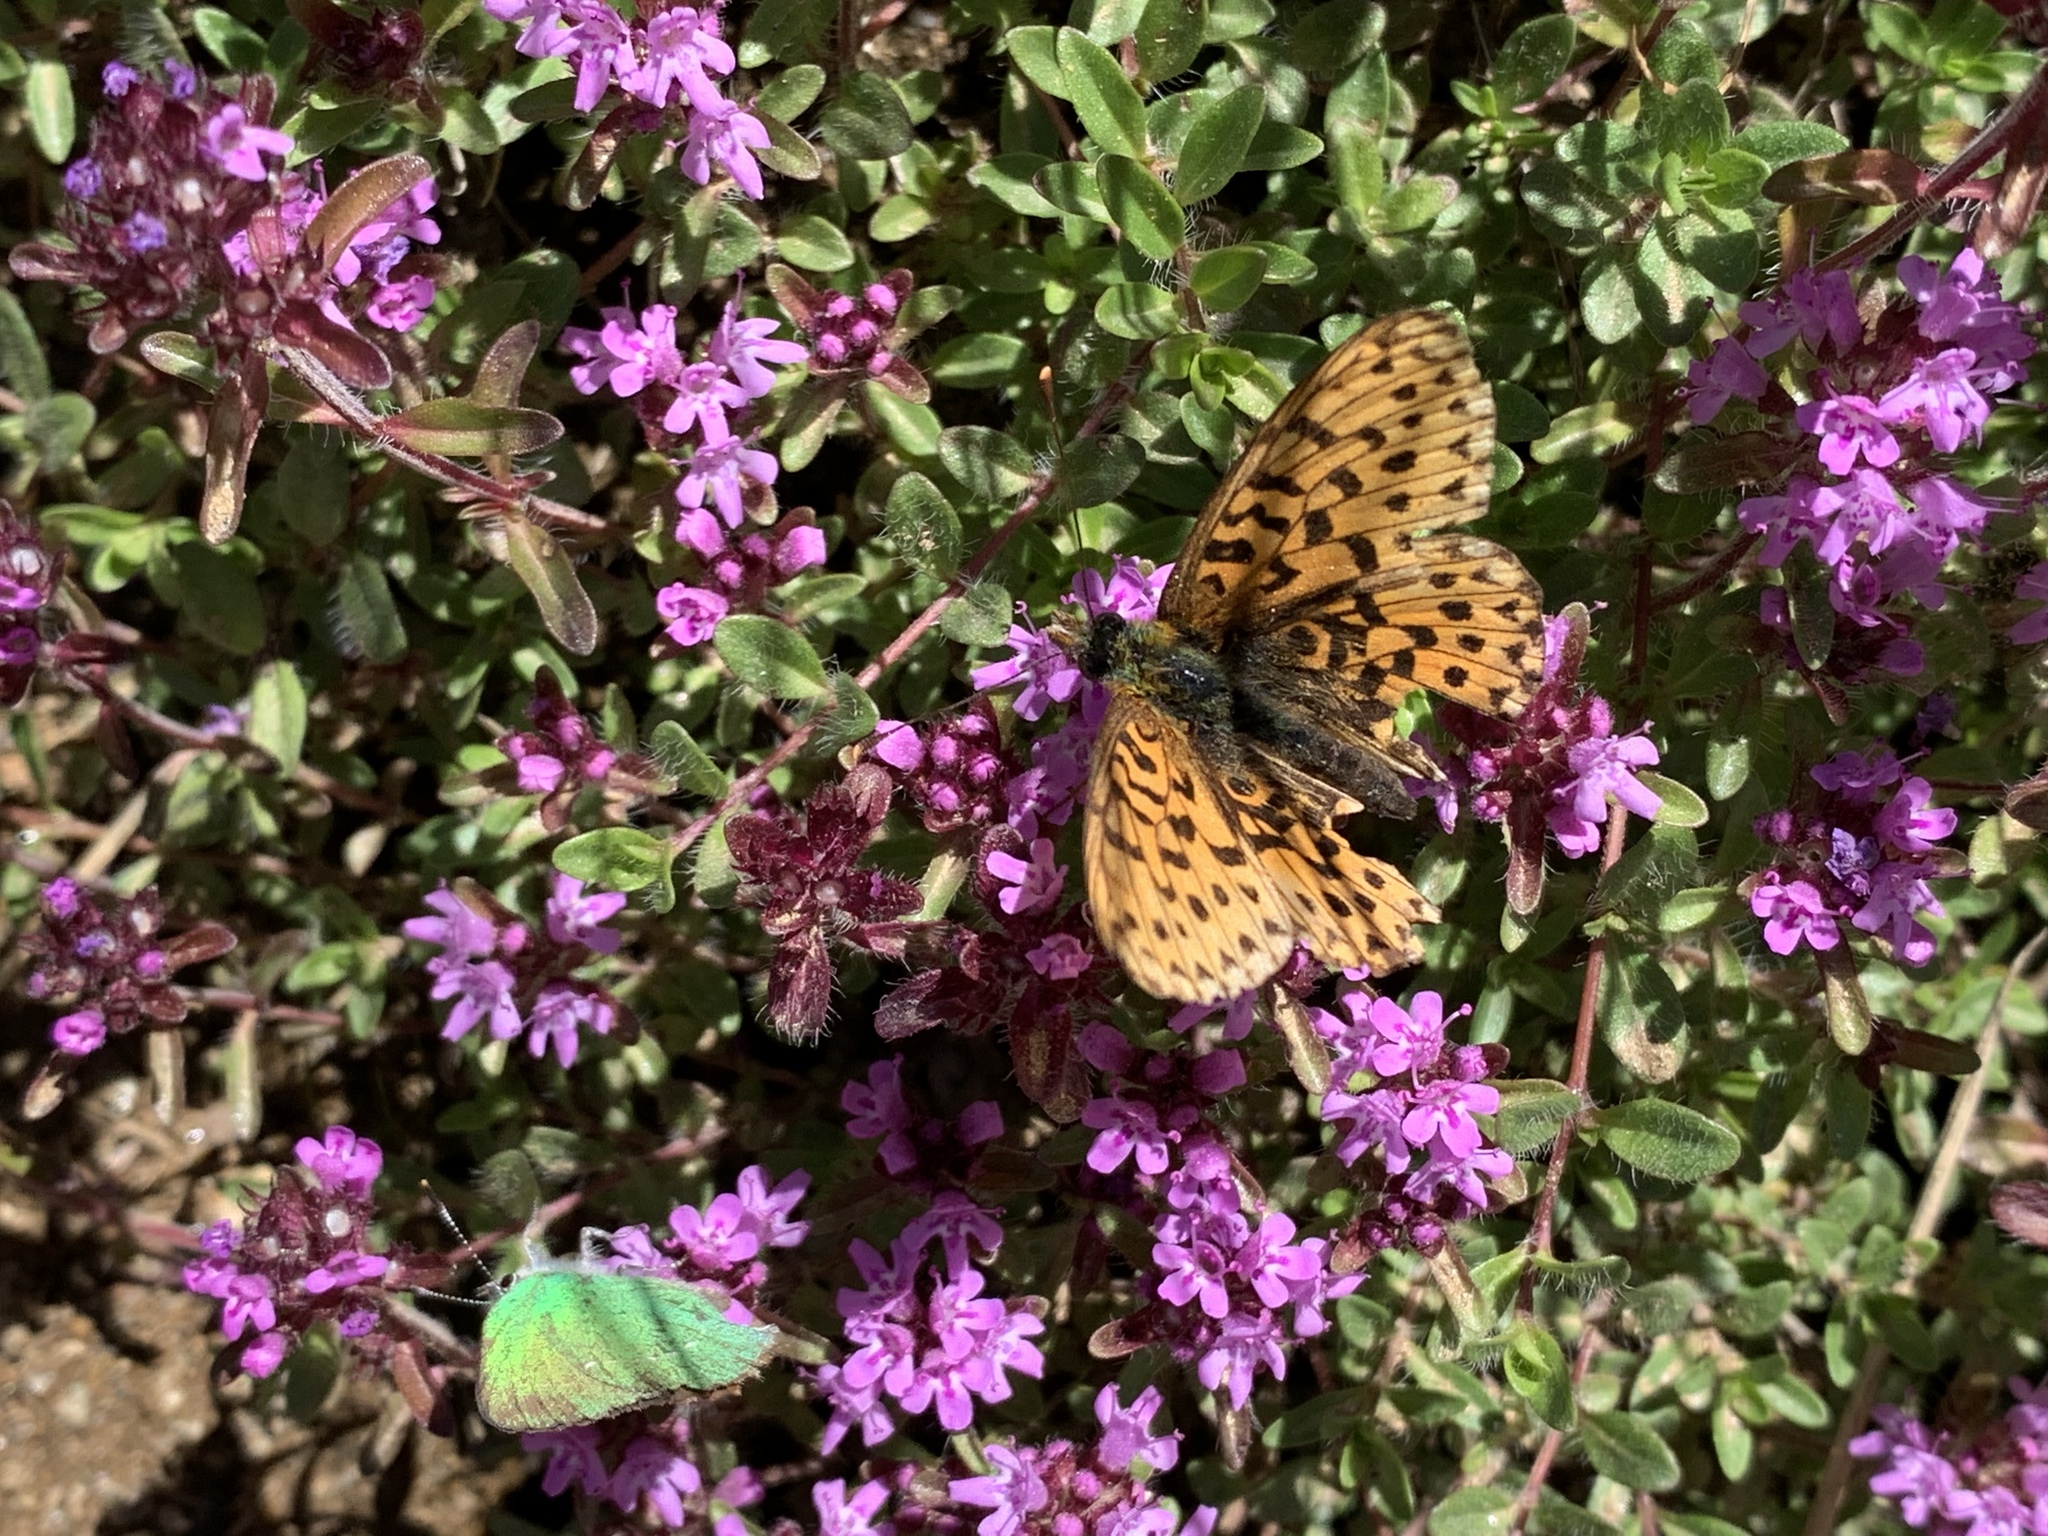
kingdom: Animalia
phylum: Arthropoda
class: Insecta
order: Lepidoptera
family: Nymphalidae
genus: Clossiana
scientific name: Clossiana euphrosyne
